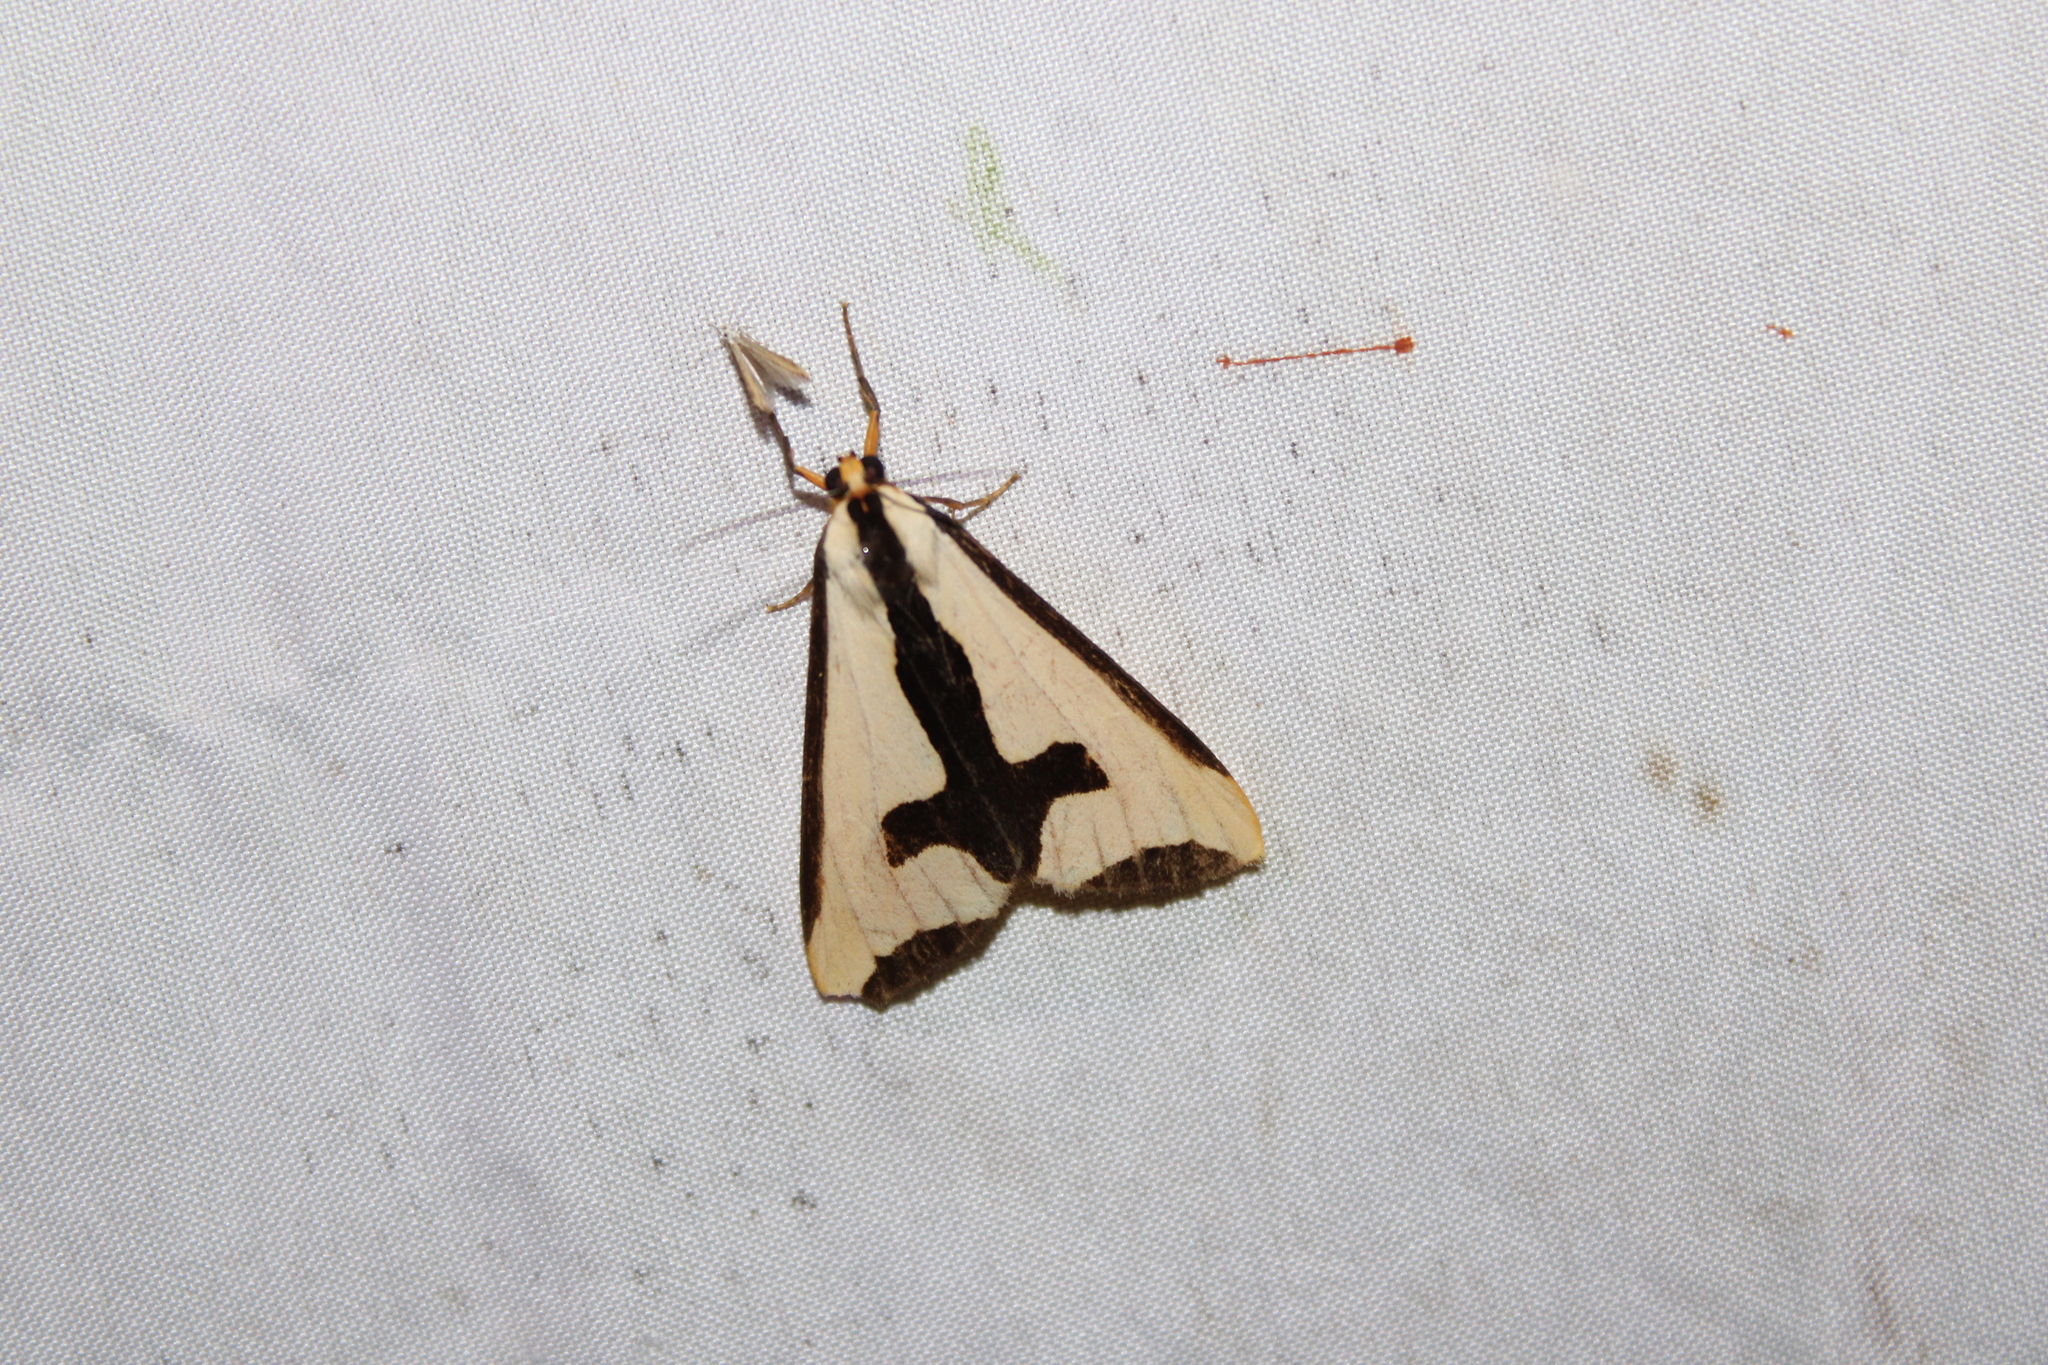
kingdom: Animalia
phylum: Arthropoda
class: Insecta
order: Lepidoptera
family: Erebidae
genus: Haploa
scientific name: Haploa clymene
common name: Clymene moth
